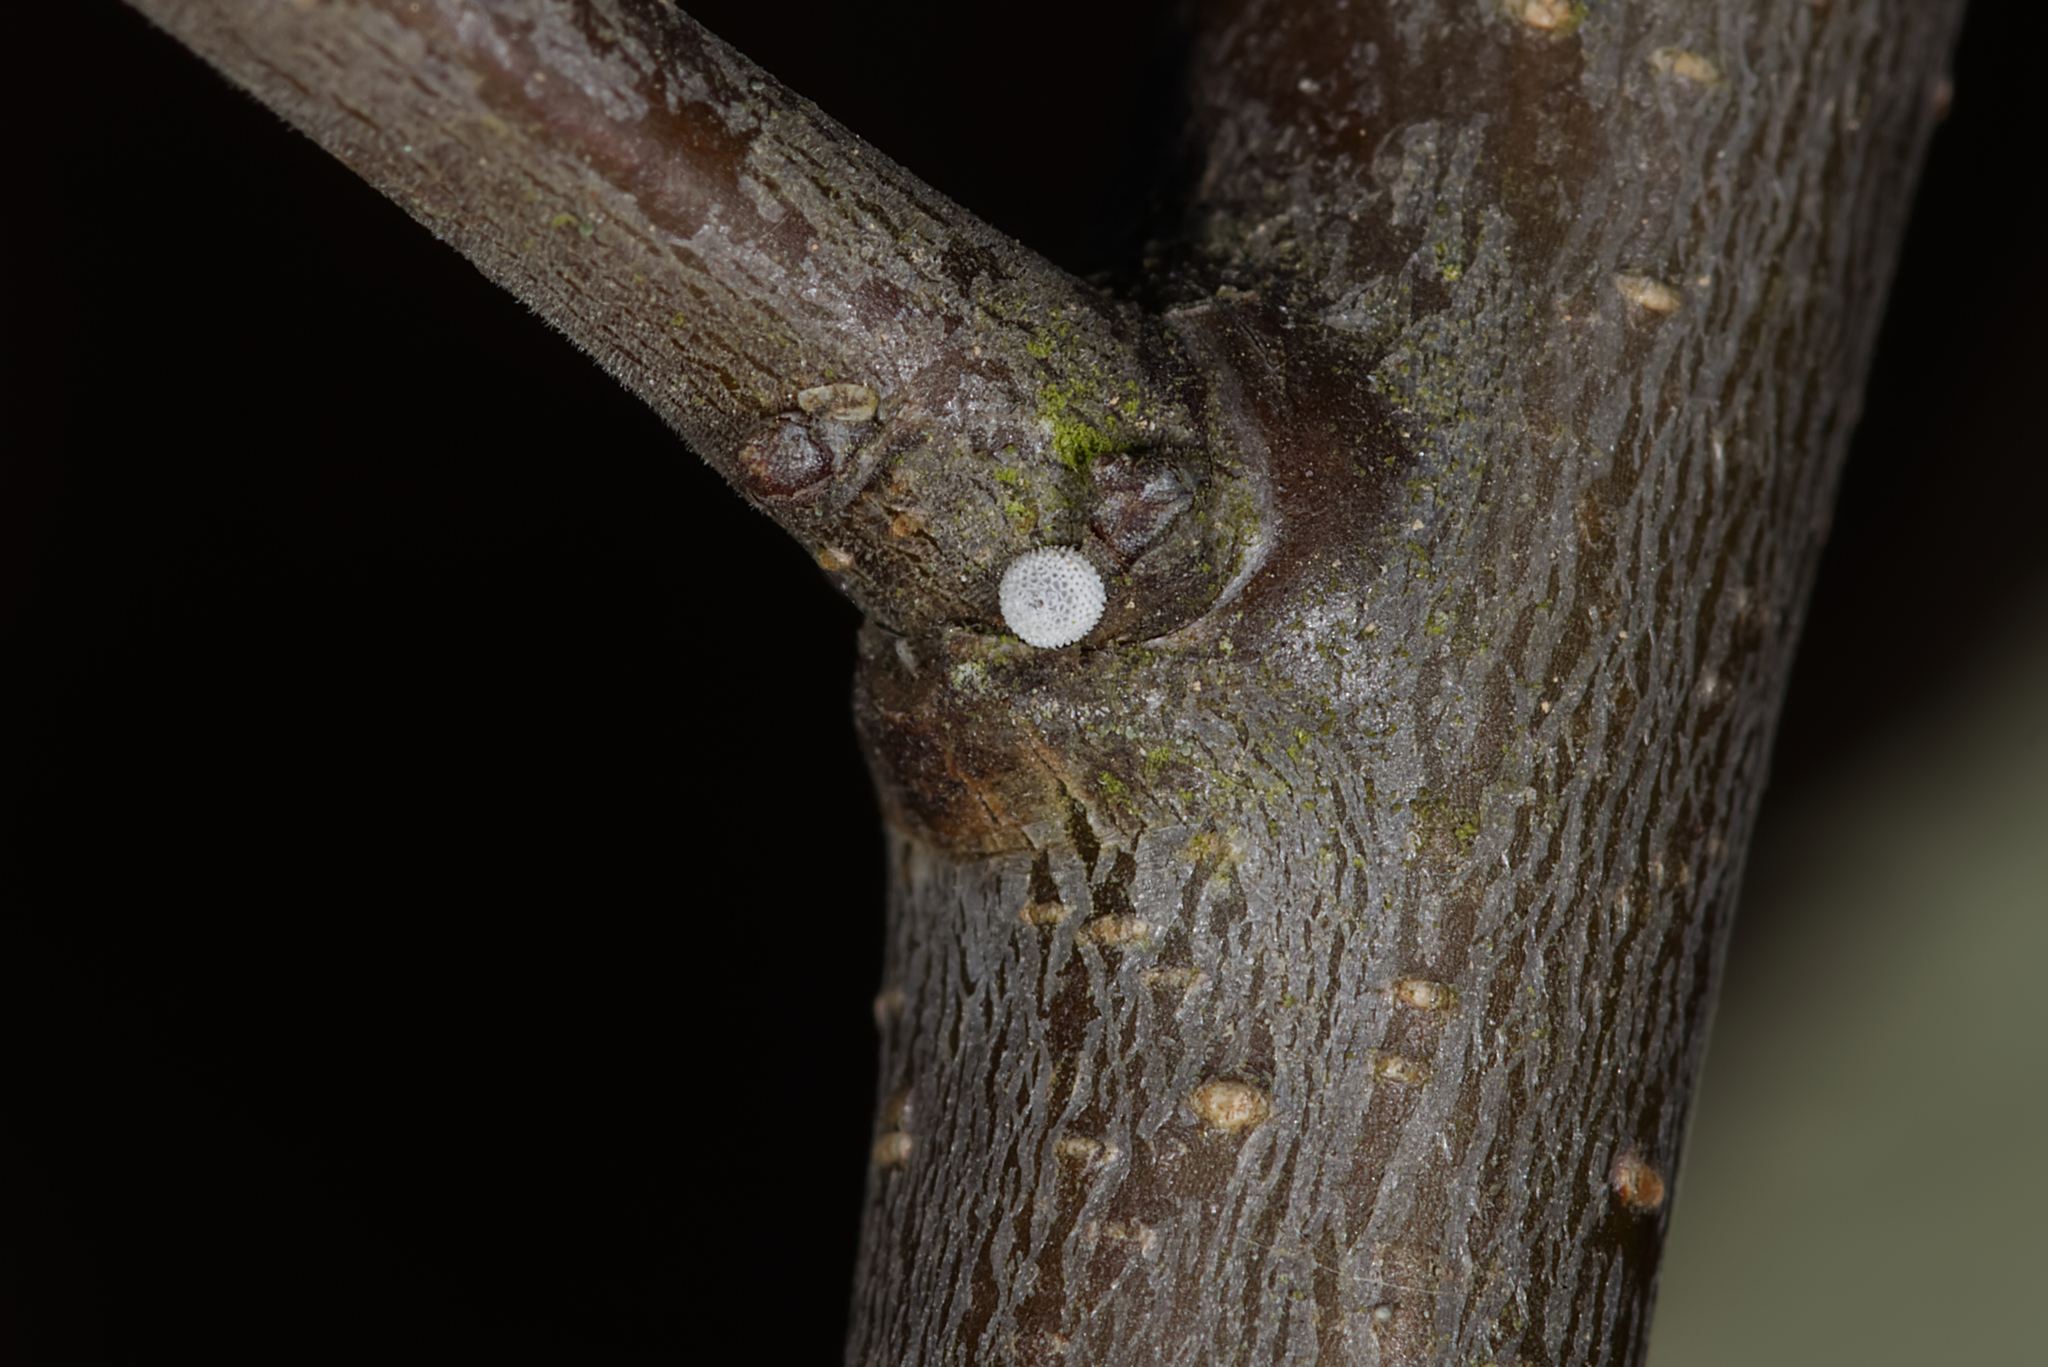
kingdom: Animalia
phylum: Arthropoda
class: Insecta
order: Lepidoptera
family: Lycaenidae
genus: Thecla
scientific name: Thecla betulae
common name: Brown hairstreak
